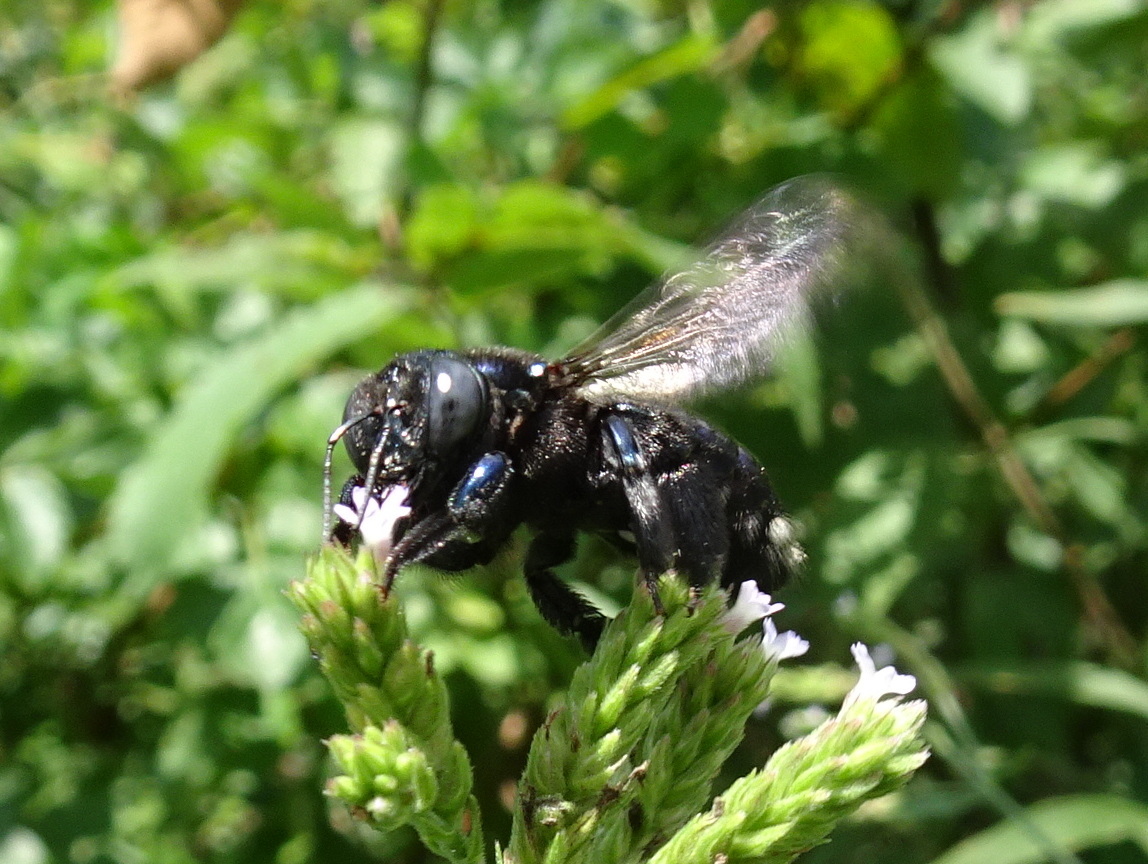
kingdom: Animalia
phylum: Arthropoda
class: Insecta
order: Hymenoptera
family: Apidae
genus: Xylocopa
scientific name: Xylocopa micans
